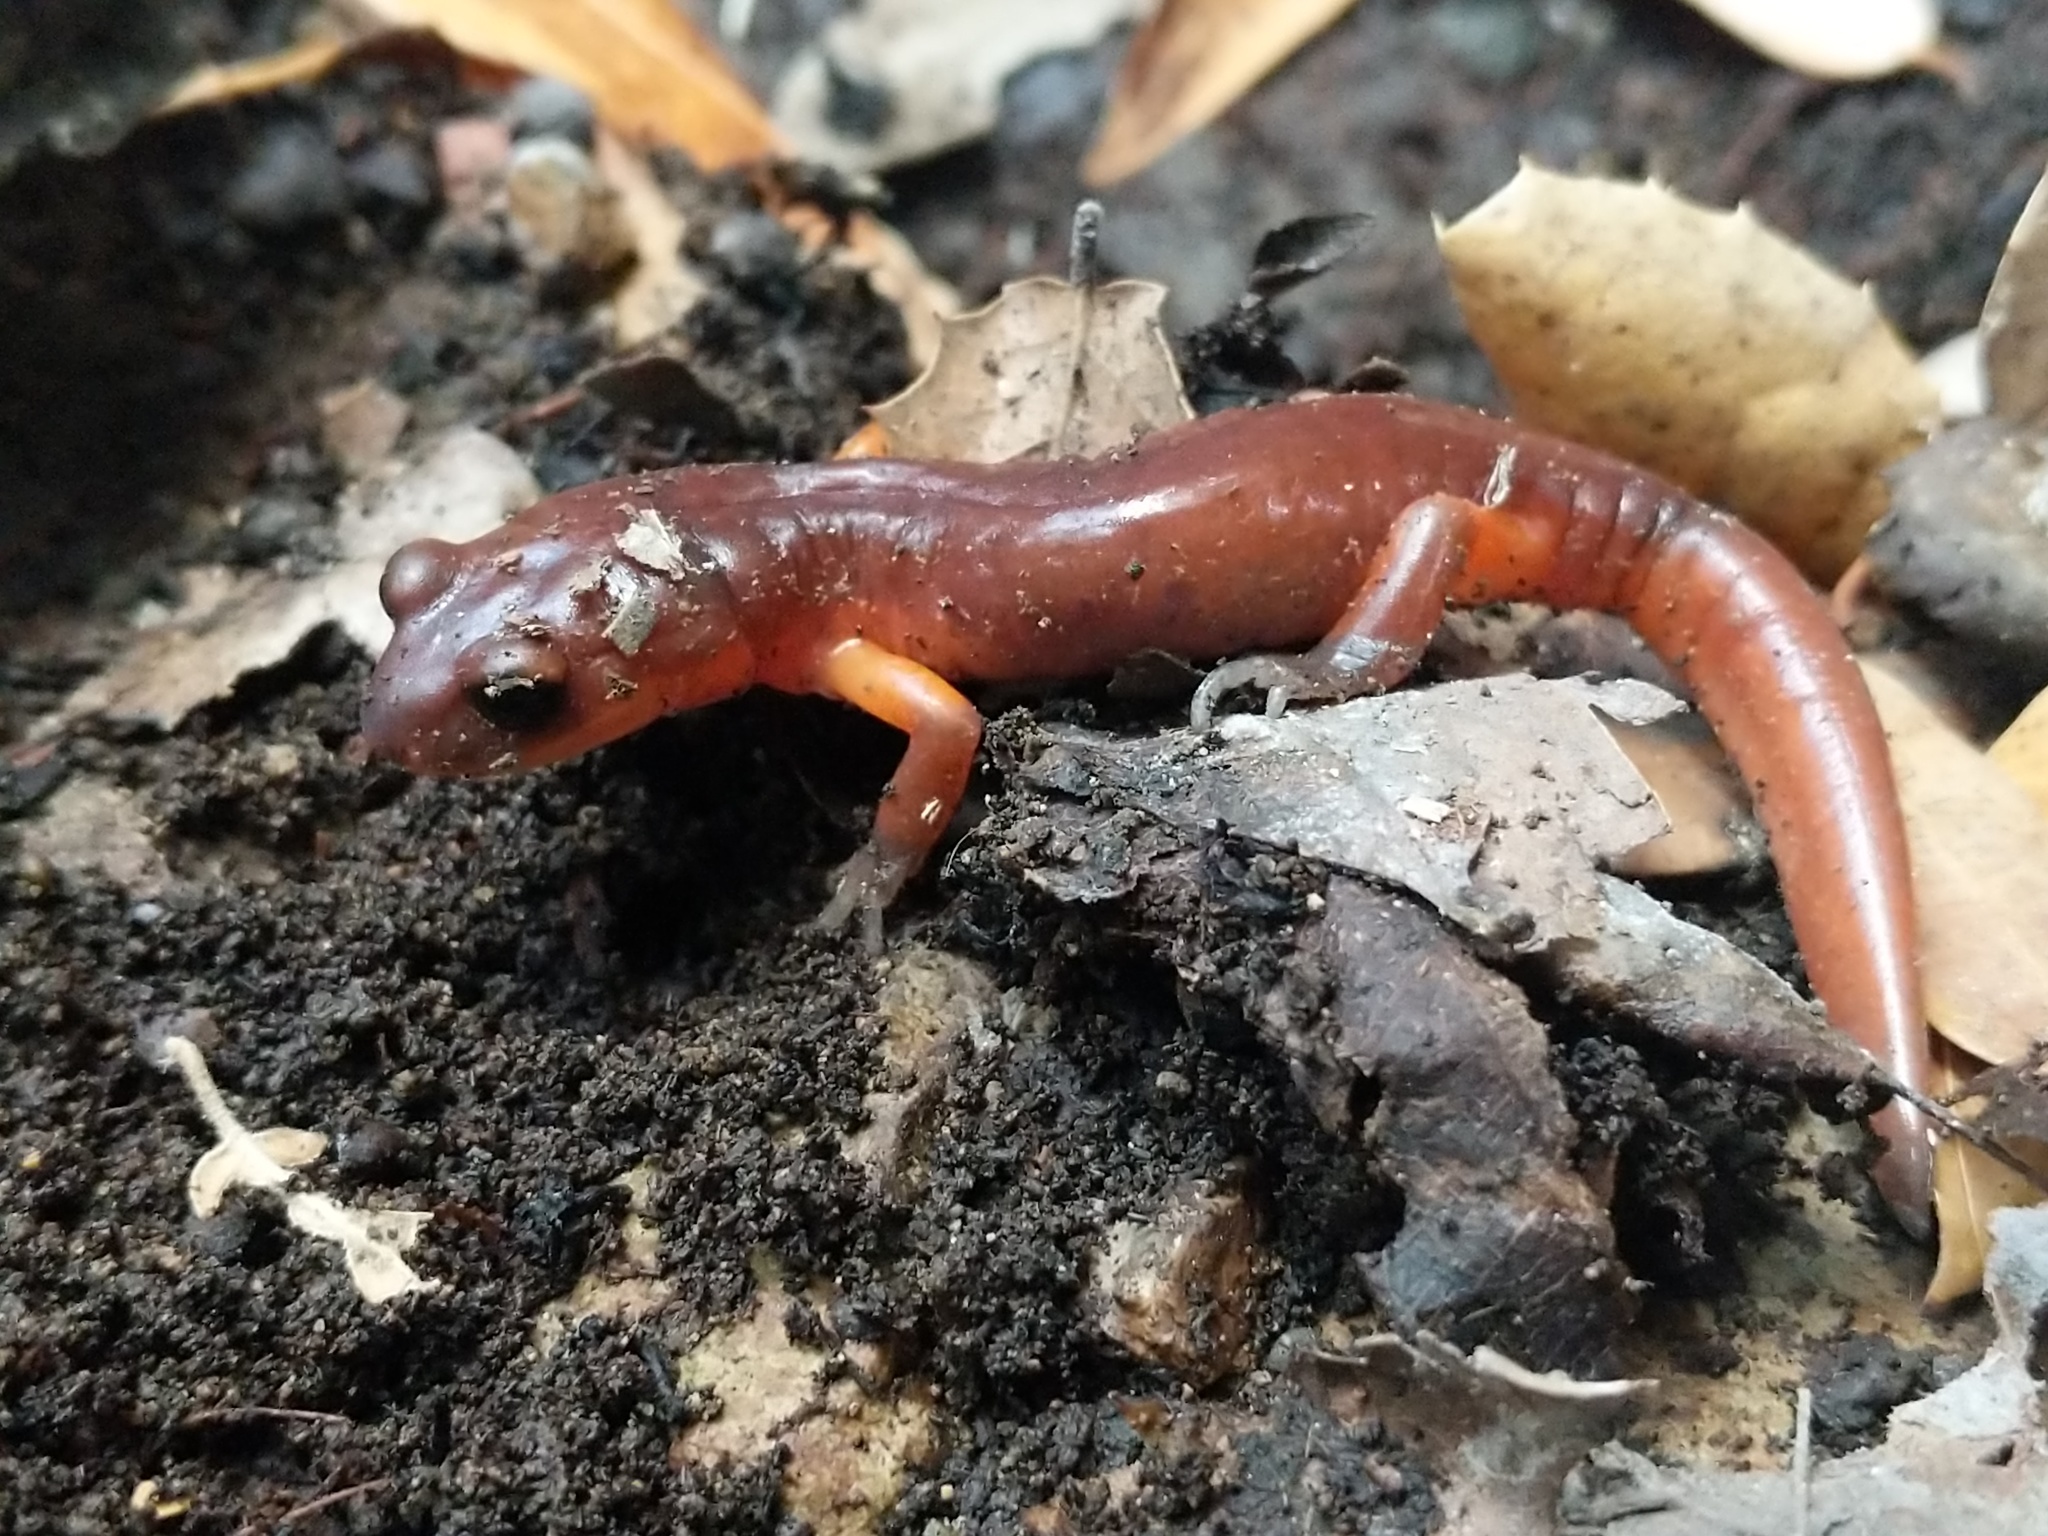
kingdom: Animalia
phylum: Chordata
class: Amphibia
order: Caudata
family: Plethodontidae
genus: Ensatina
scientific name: Ensatina eschscholtzii
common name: Ensatina
